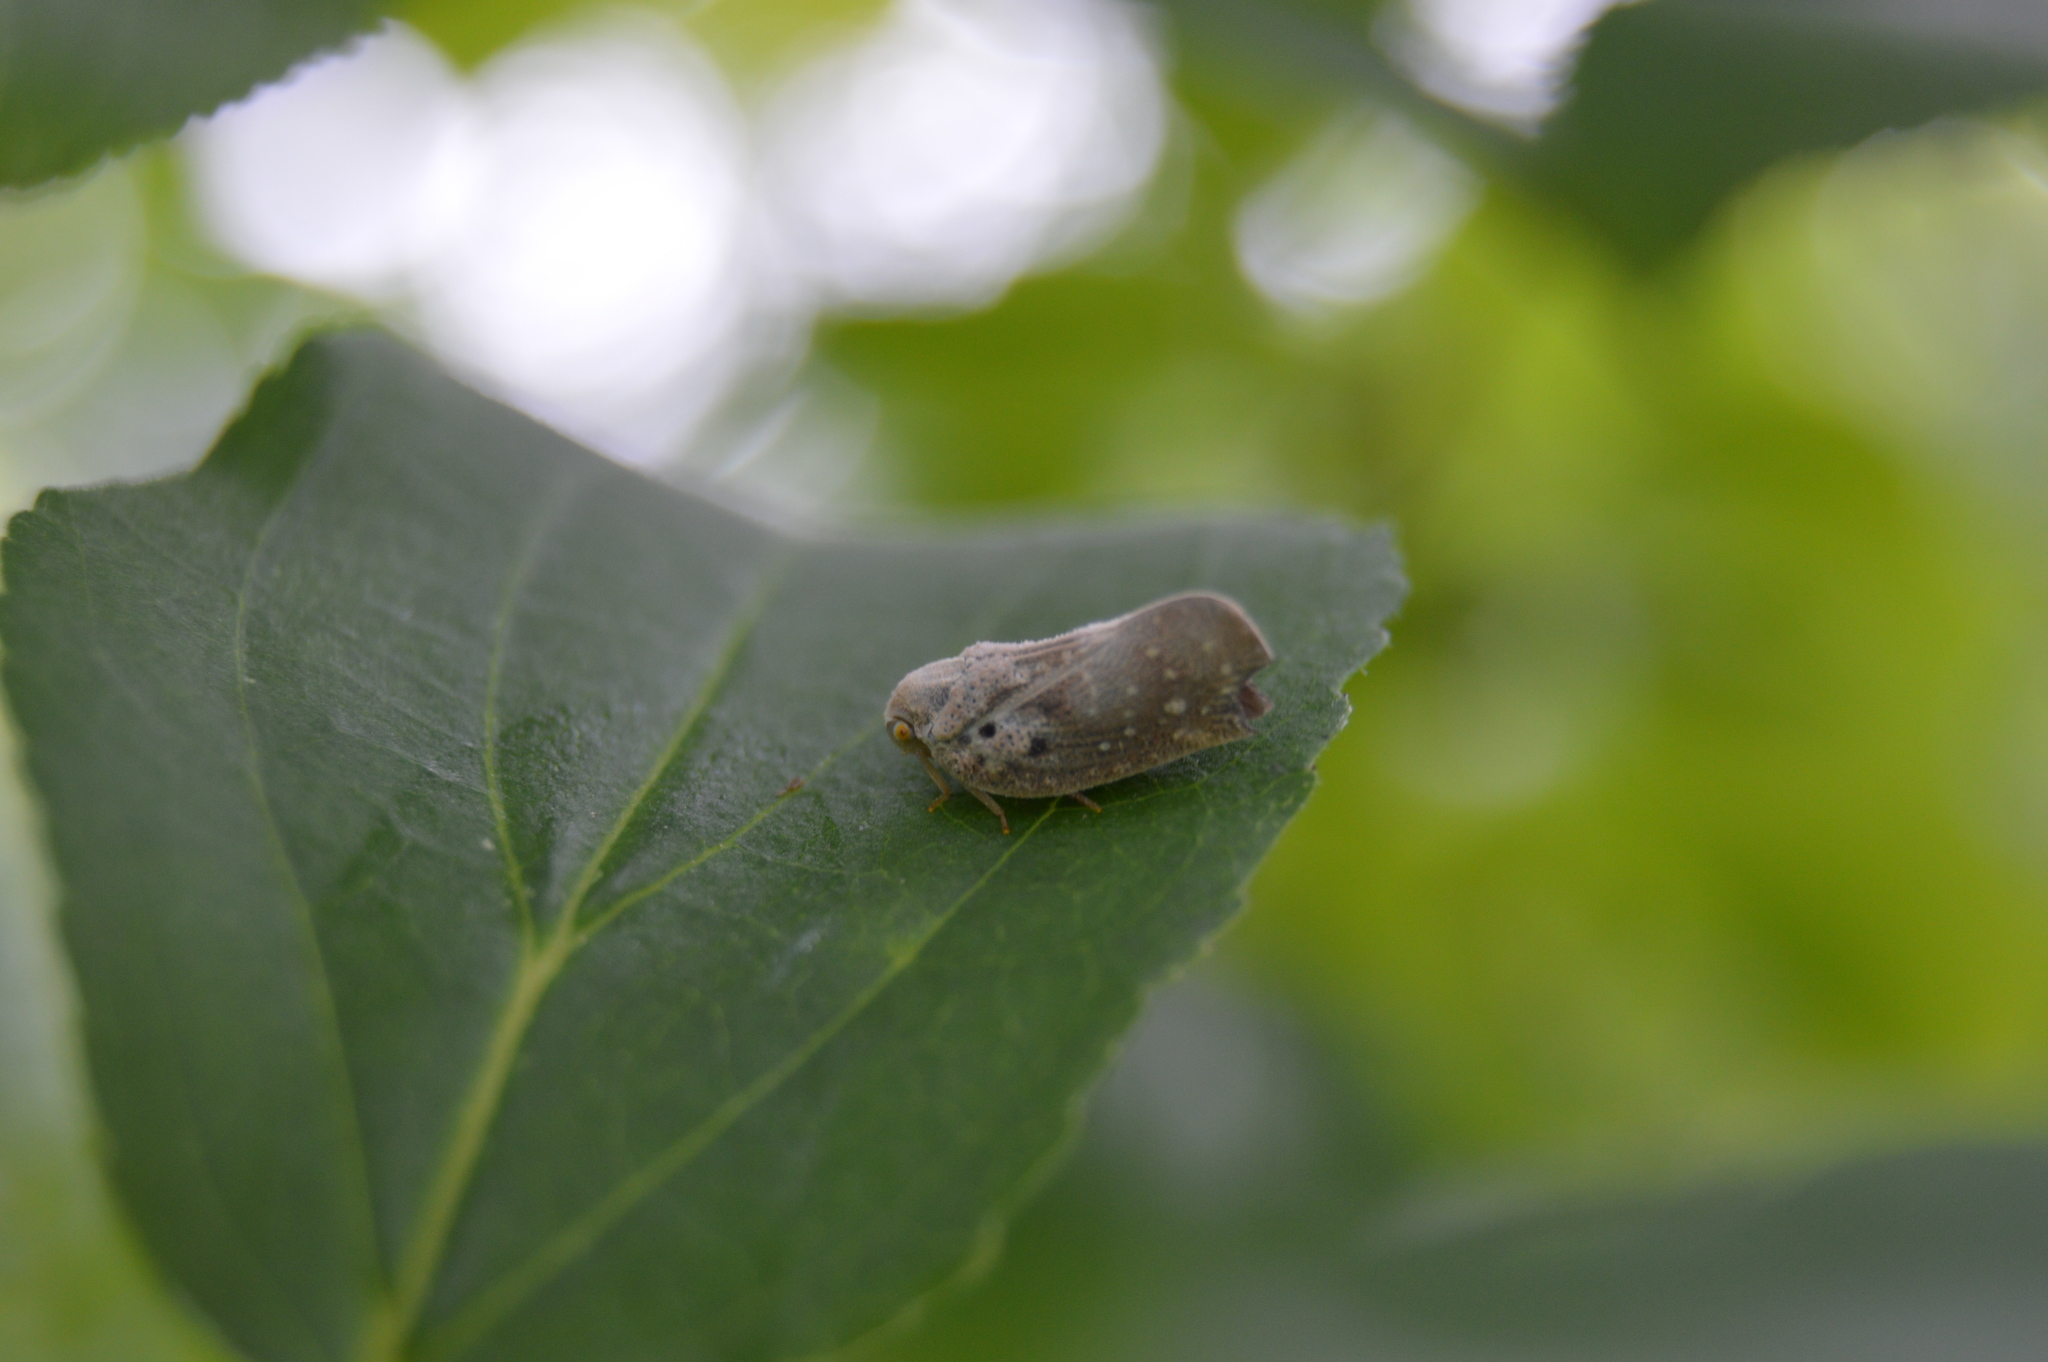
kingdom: Animalia
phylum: Arthropoda
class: Insecta
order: Hemiptera
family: Flatidae
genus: Metcalfa
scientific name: Metcalfa pruinosa
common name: Citrus flatid planthopper
